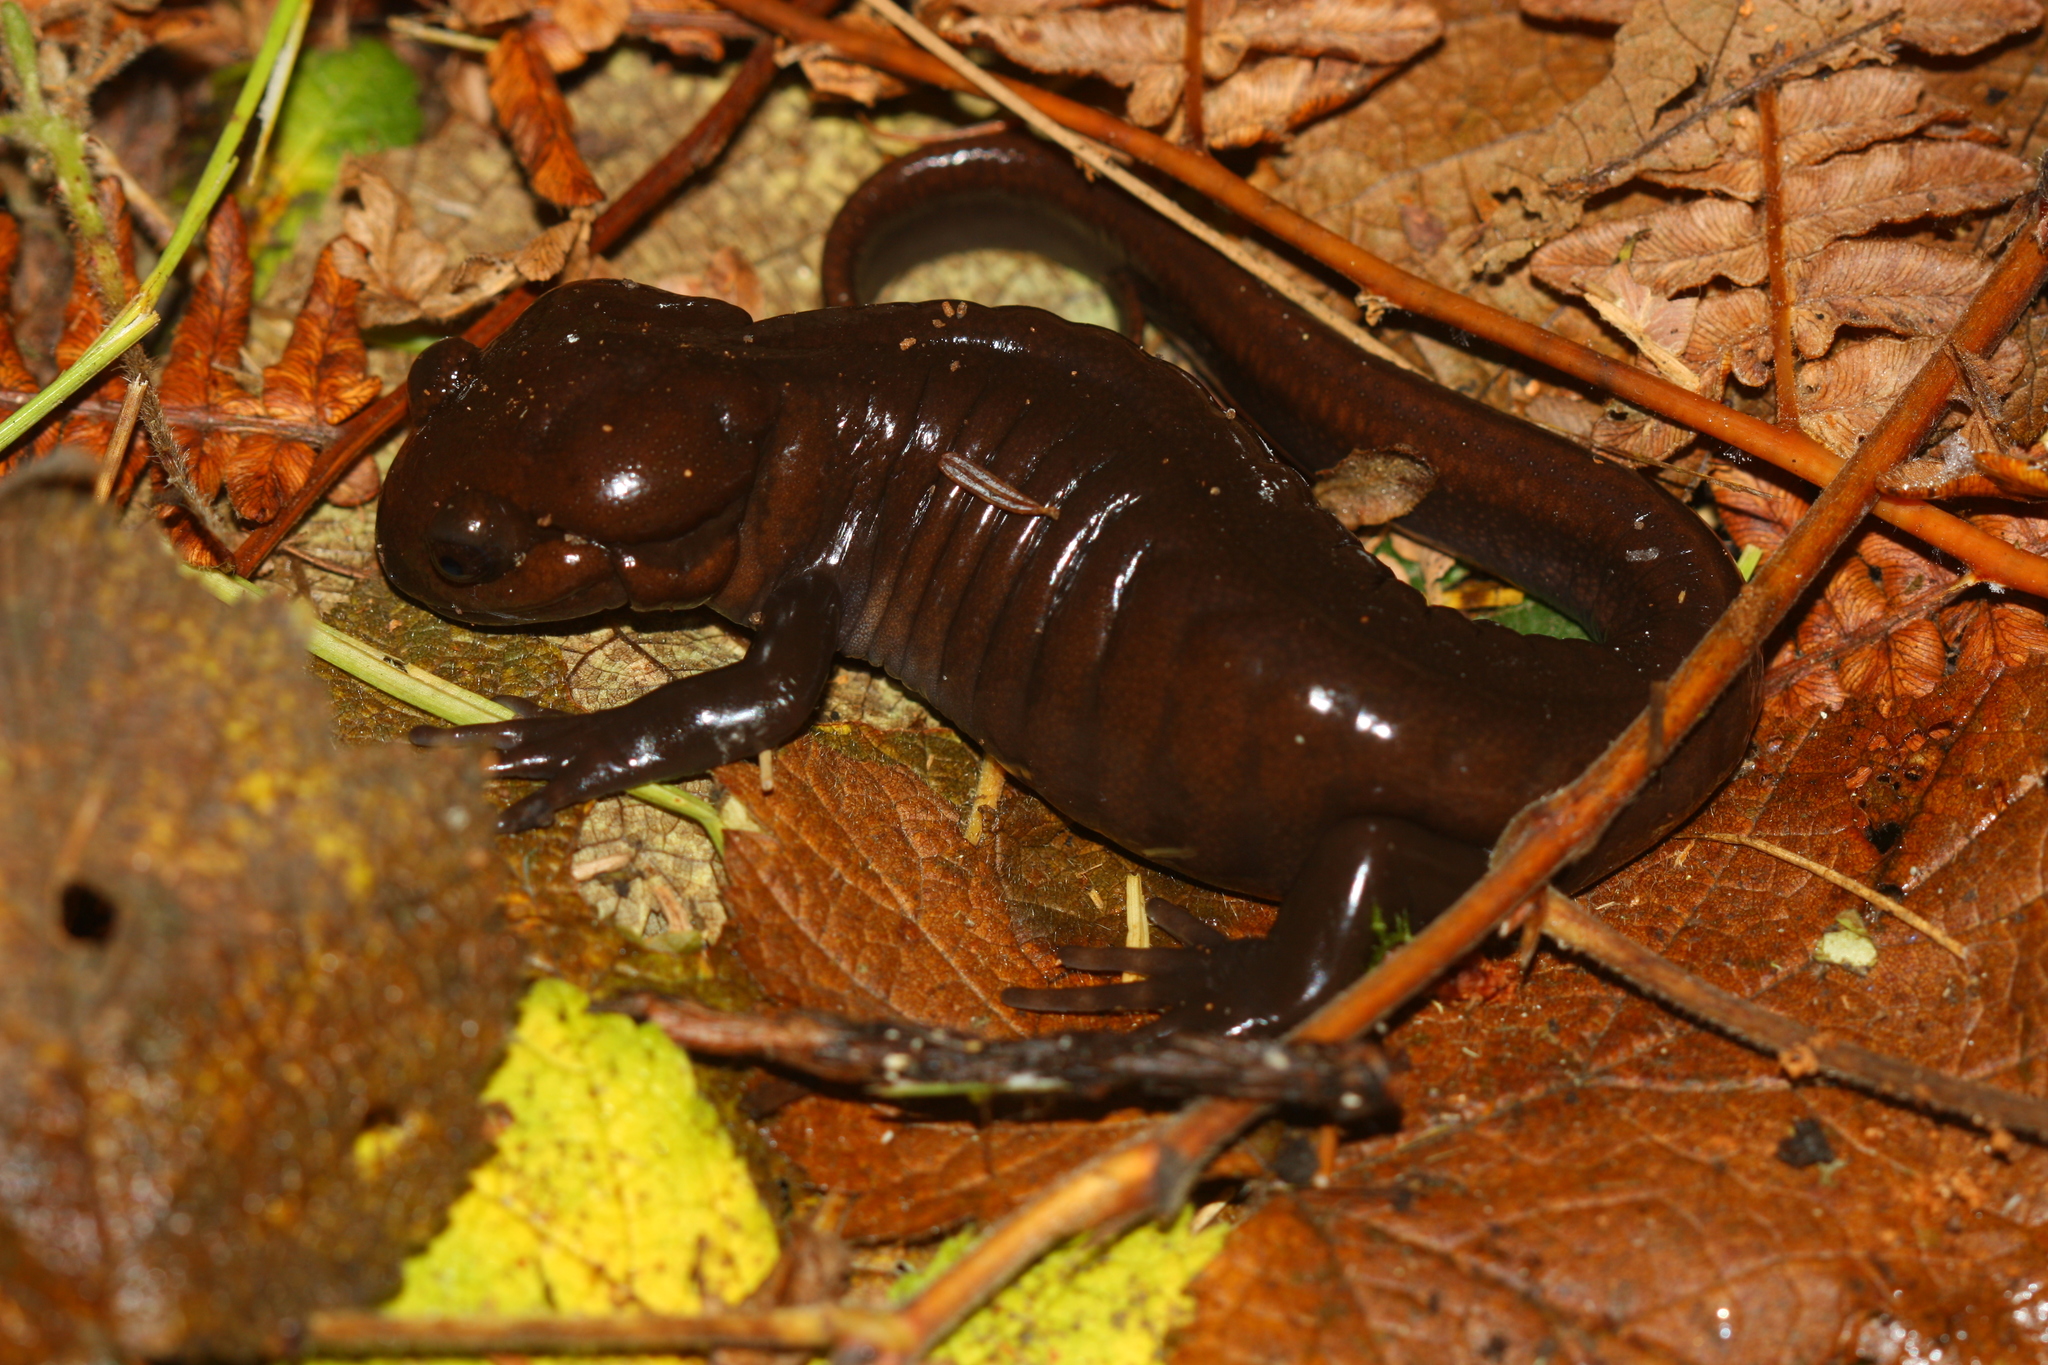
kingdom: Animalia
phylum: Chordata
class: Amphibia
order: Caudata
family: Ambystomatidae
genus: Ambystoma
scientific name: Ambystoma gracile
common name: Northwestern salamander
